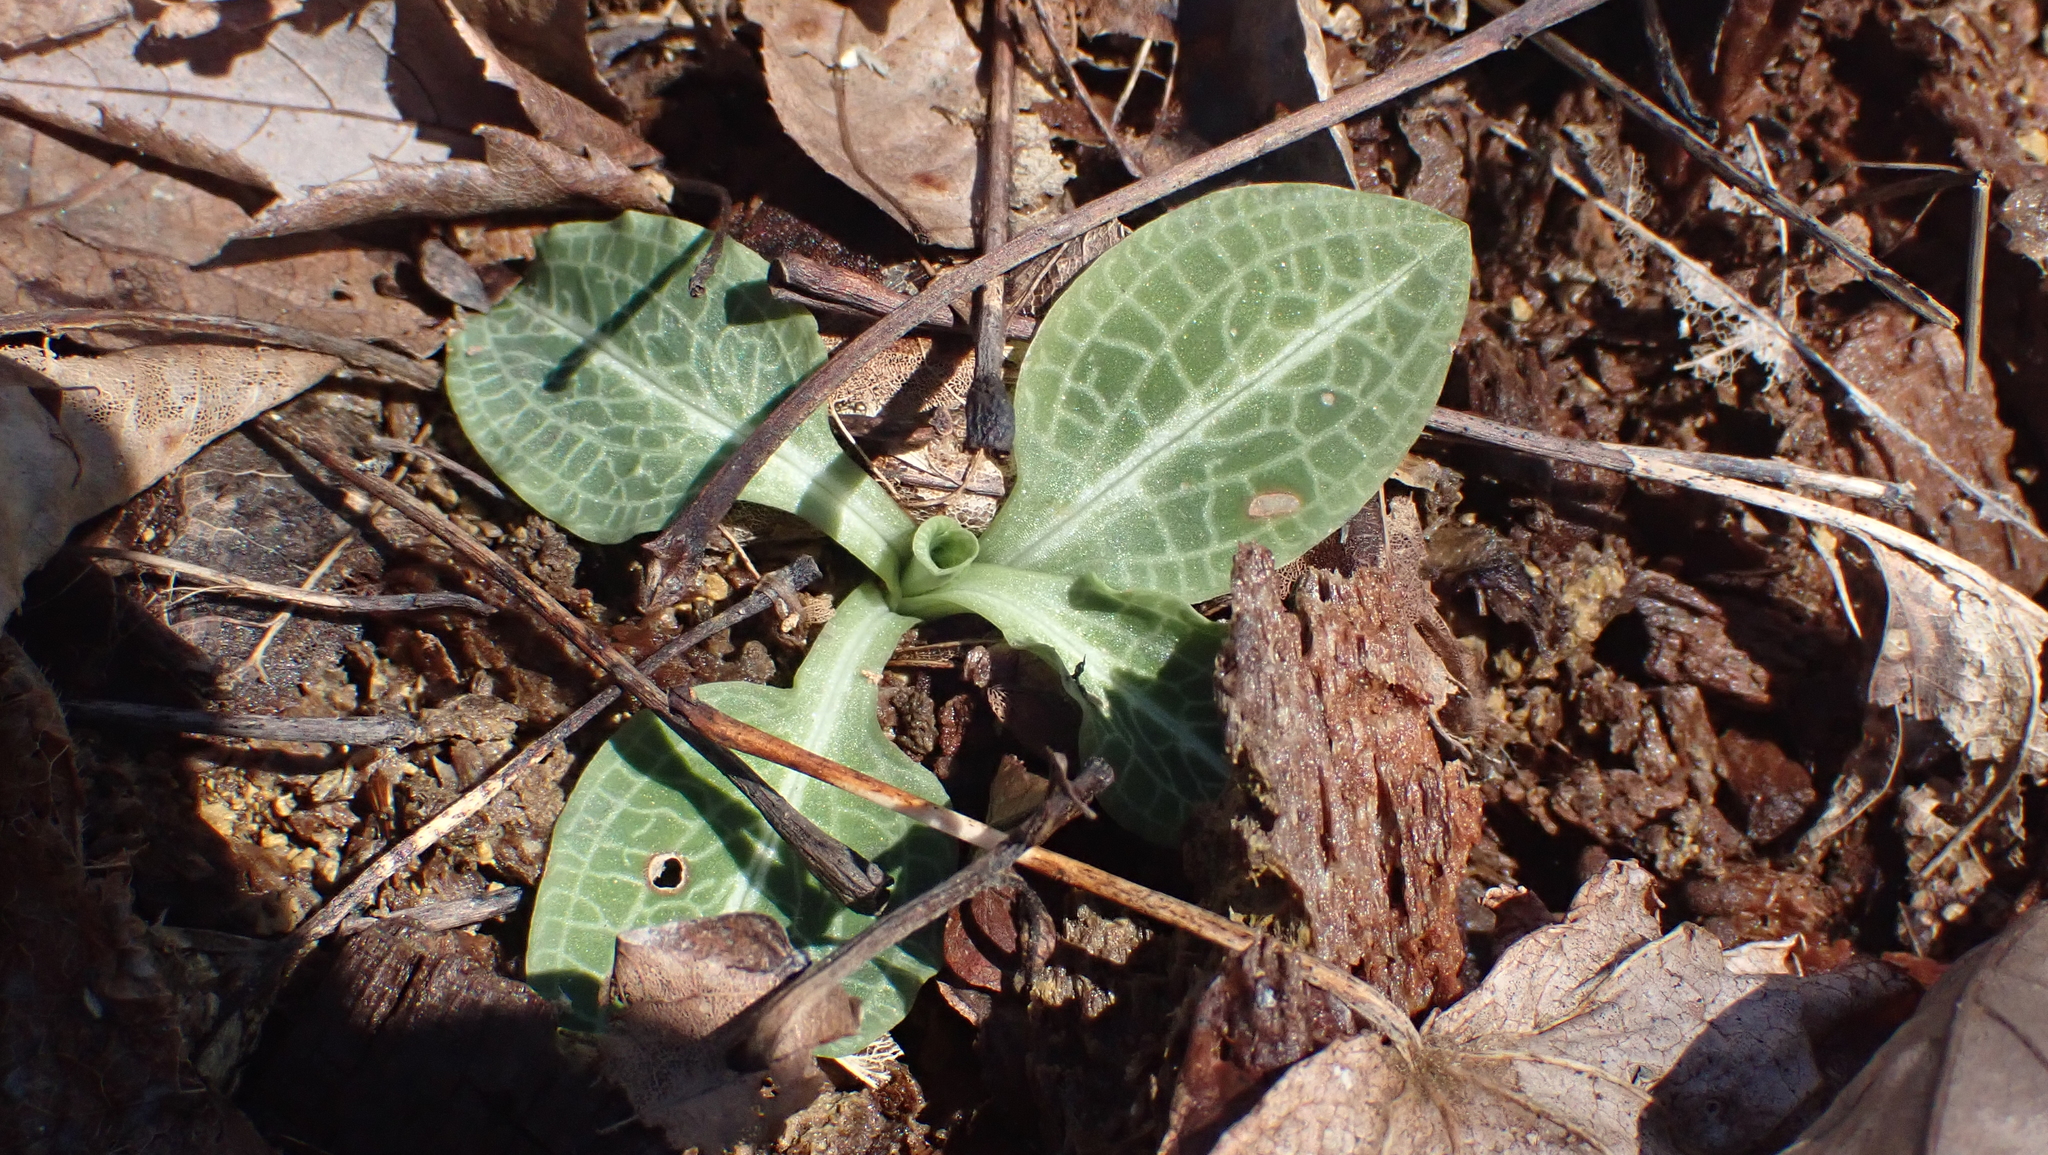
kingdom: Plantae
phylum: Tracheophyta
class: Liliopsida
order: Asparagales
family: Orchidaceae
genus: Goodyera
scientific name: Goodyera pubescens
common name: Downy rattlesnake-plantain
